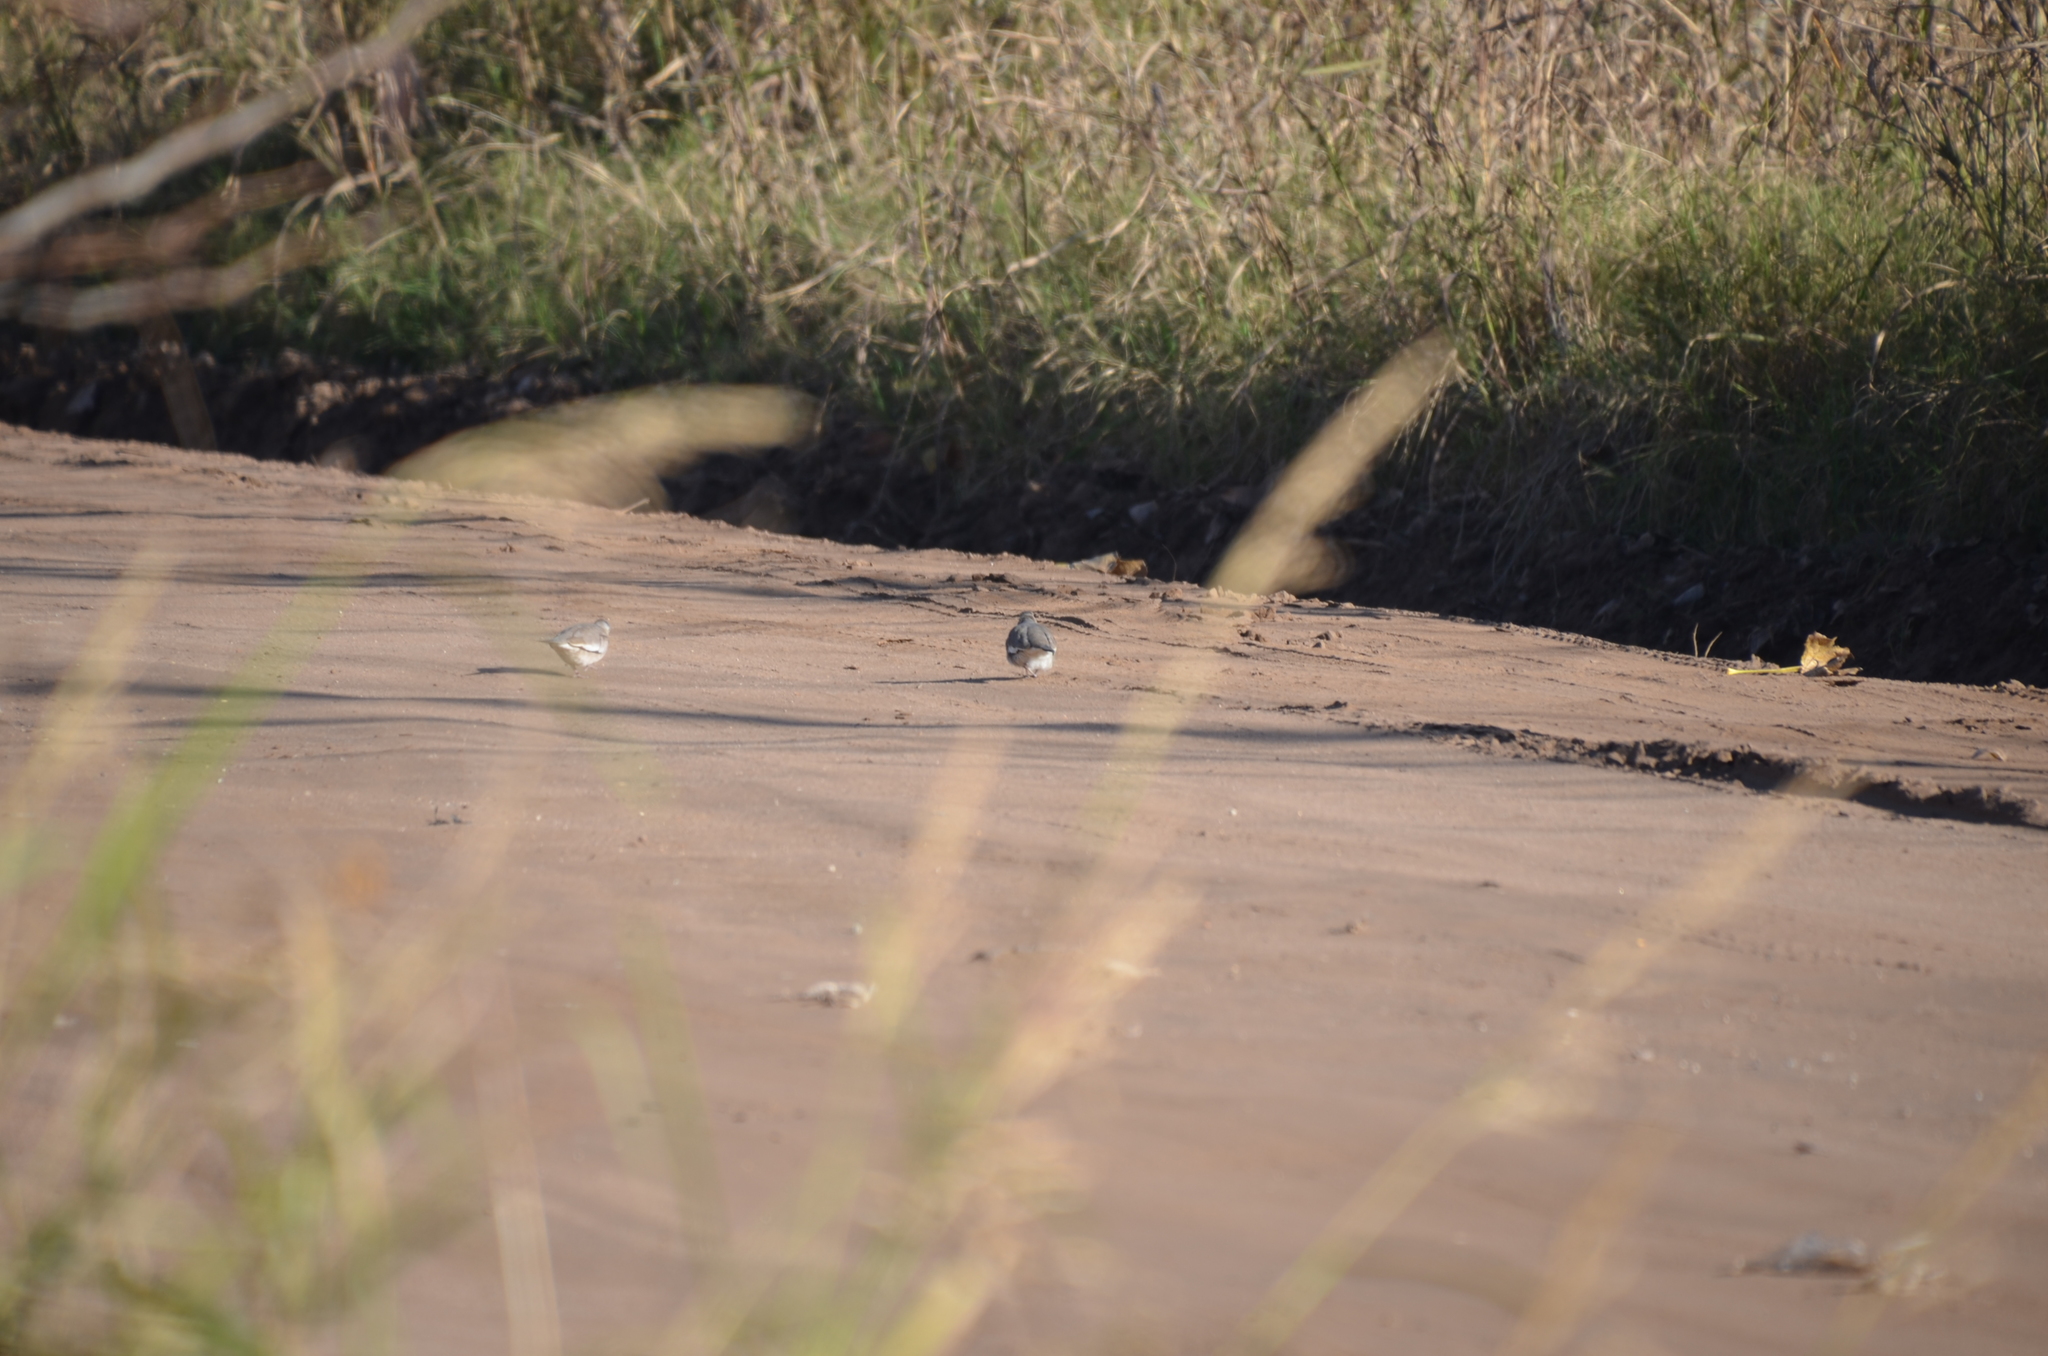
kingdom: Animalia
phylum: Chordata
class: Aves
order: Columbiformes
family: Columbidae
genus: Columbina
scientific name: Columbina picui
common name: Picui ground dove
